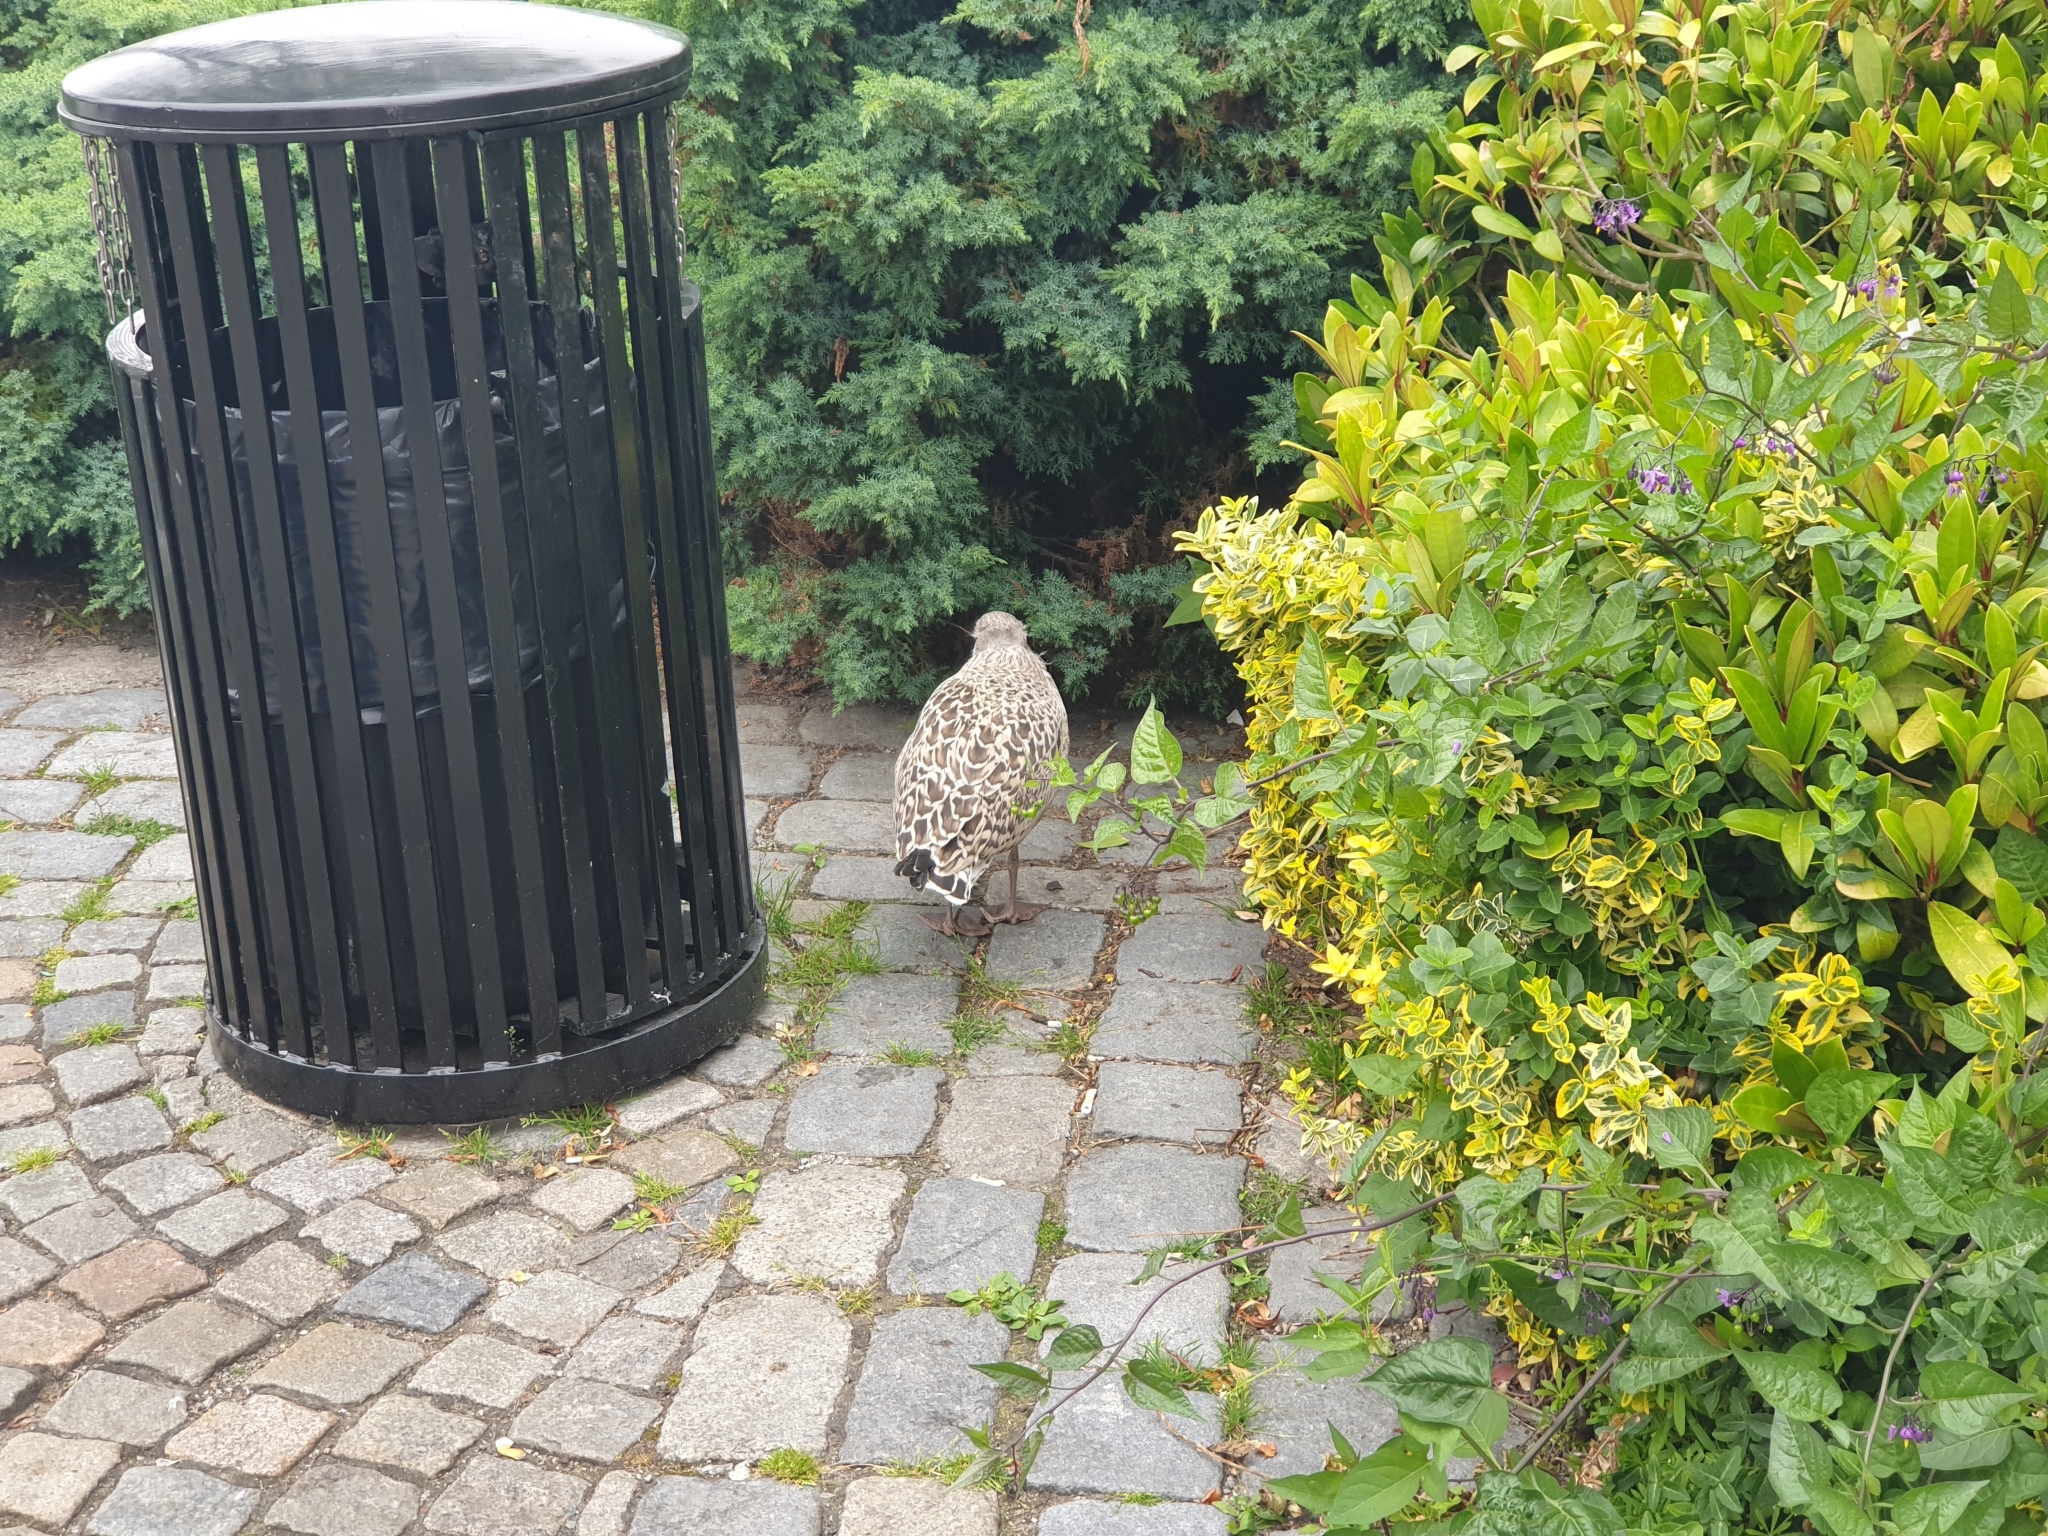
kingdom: Animalia
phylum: Chordata
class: Aves
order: Charadriiformes
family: Laridae
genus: Larus
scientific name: Larus argentatus
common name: Herring gull
